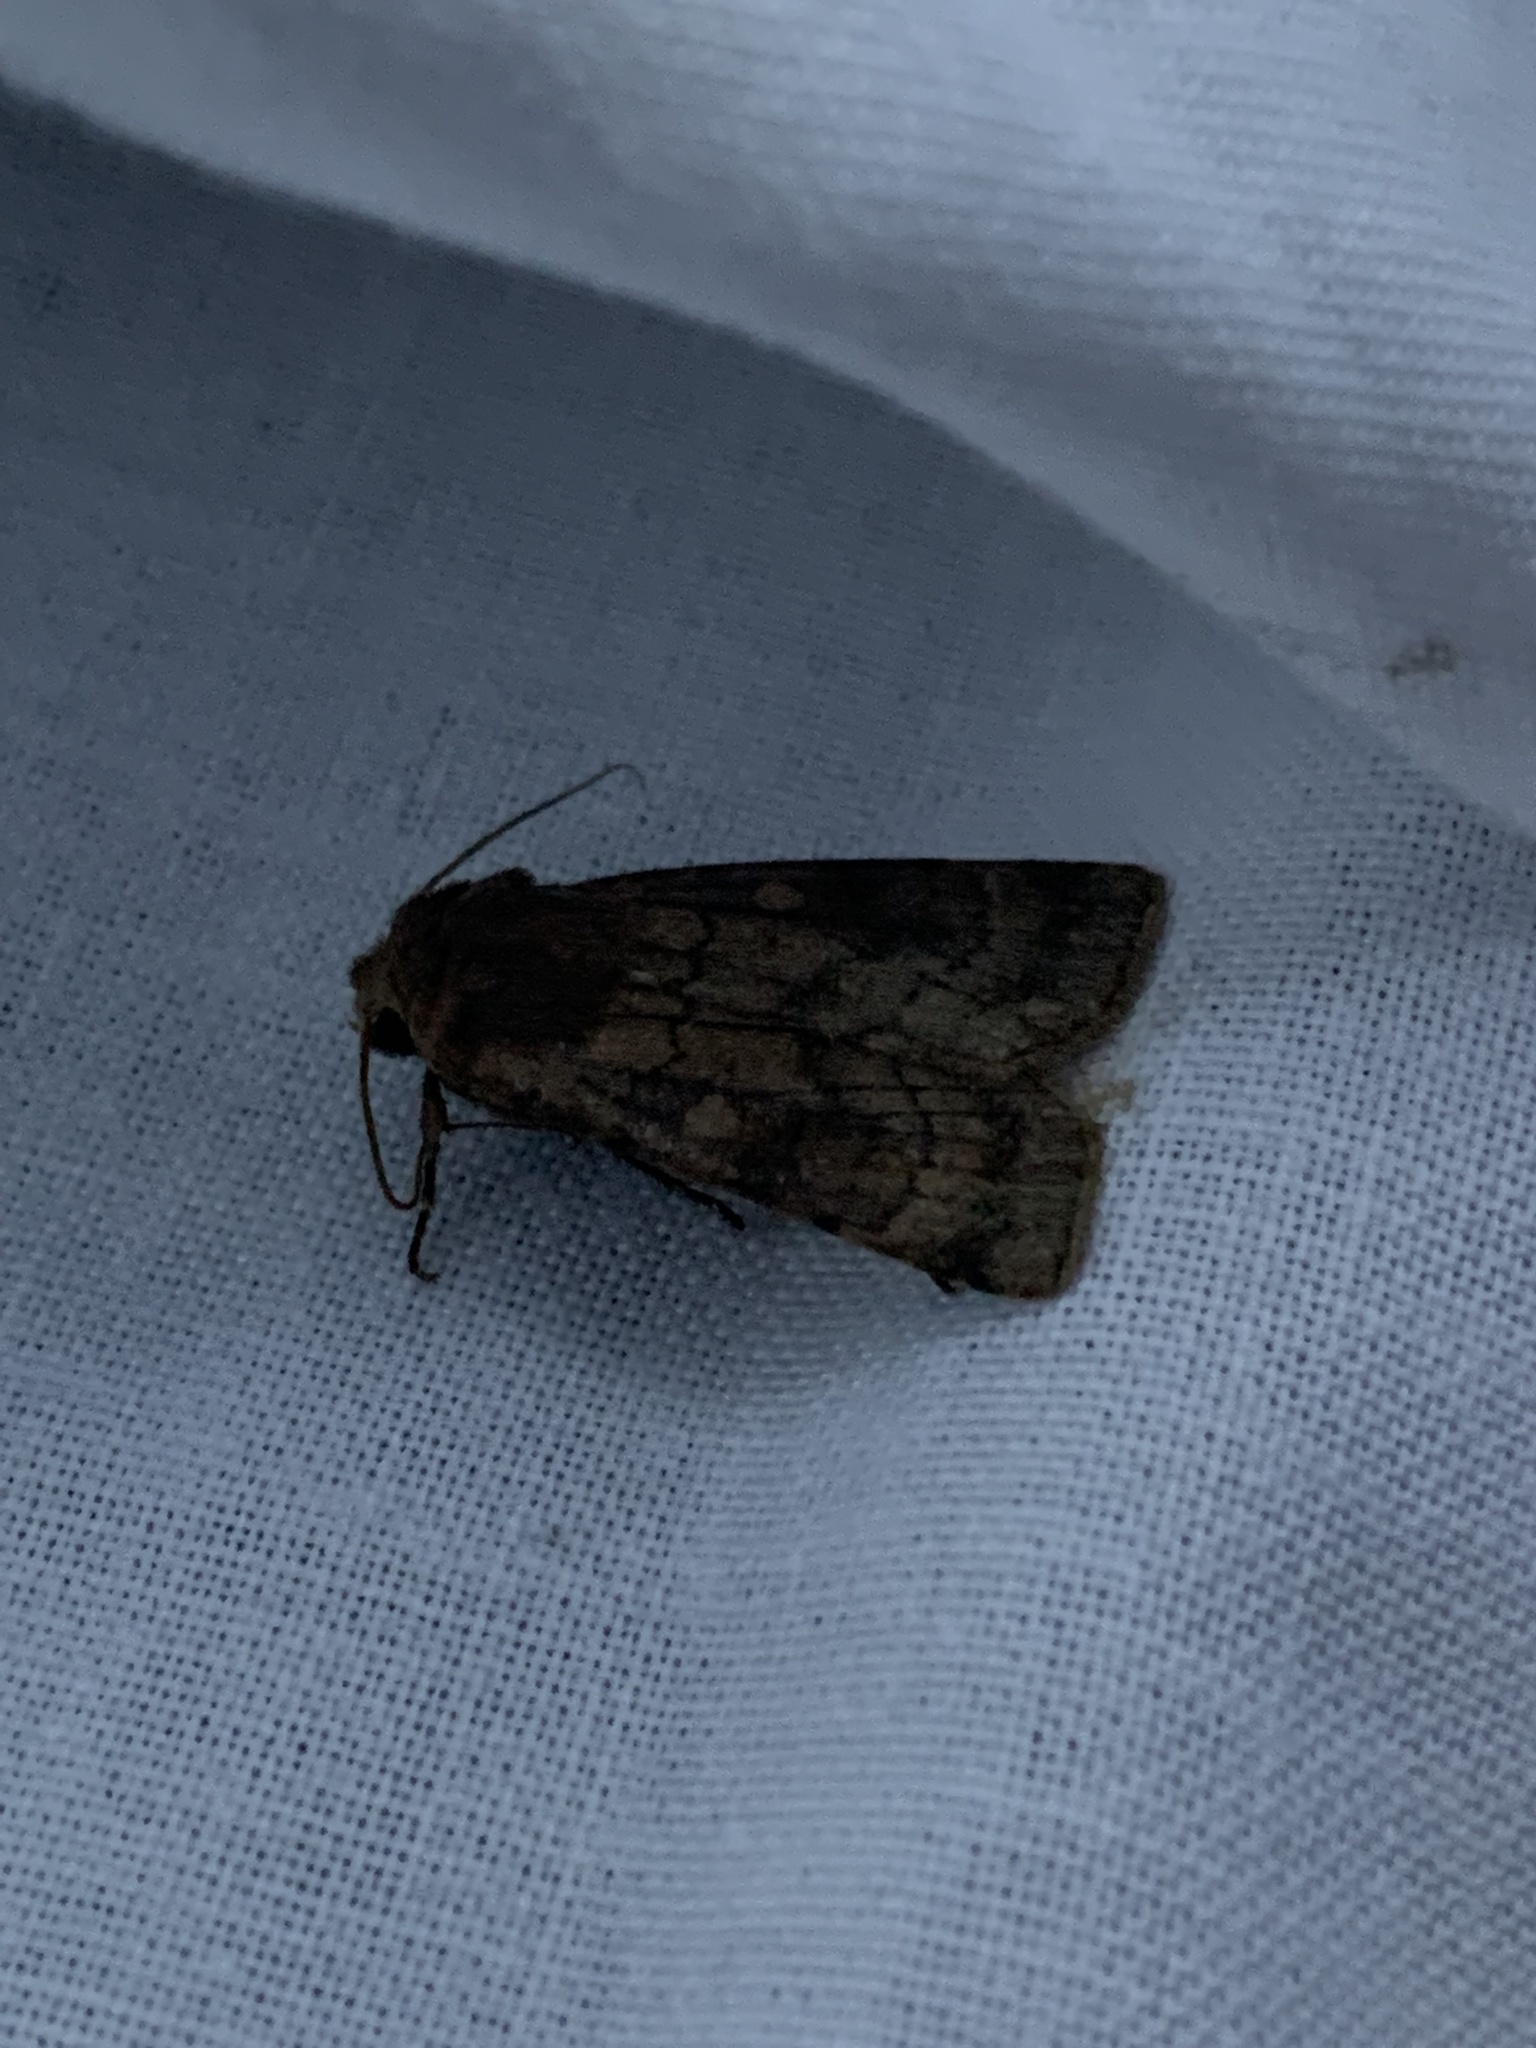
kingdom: Animalia
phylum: Arthropoda
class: Insecta
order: Lepidoptera
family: Noctuidae
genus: Xestia
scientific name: Xestia sexstrigata
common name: Six-striped rustic
